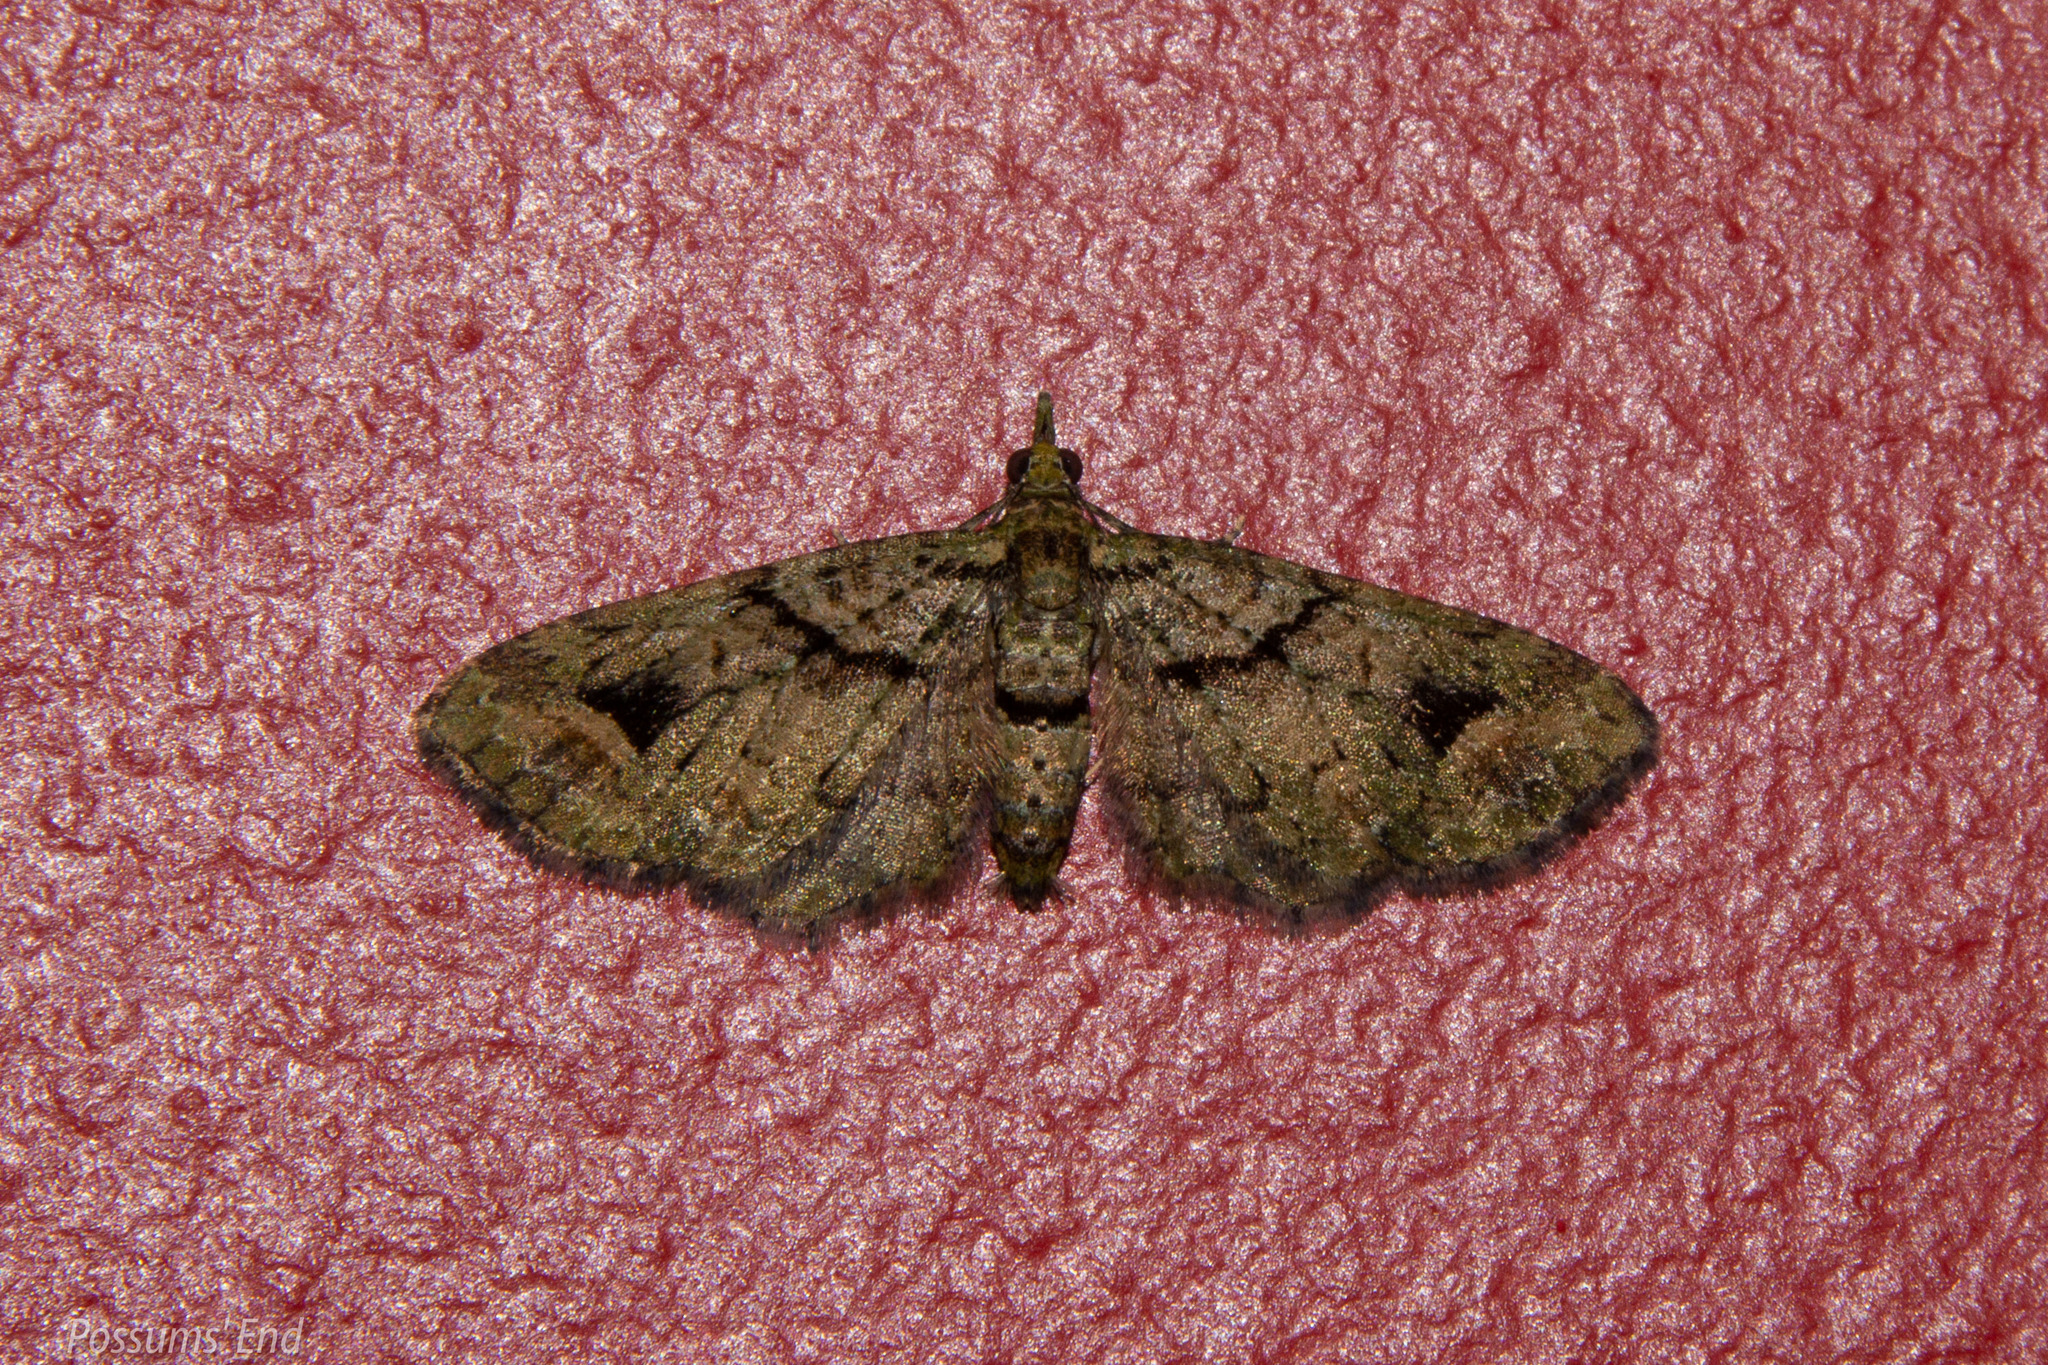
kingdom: Animalia
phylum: Arthropoda
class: Insecta
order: Lepidoptera
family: Geometridae
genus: Idaea
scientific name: Idaea mutanda
